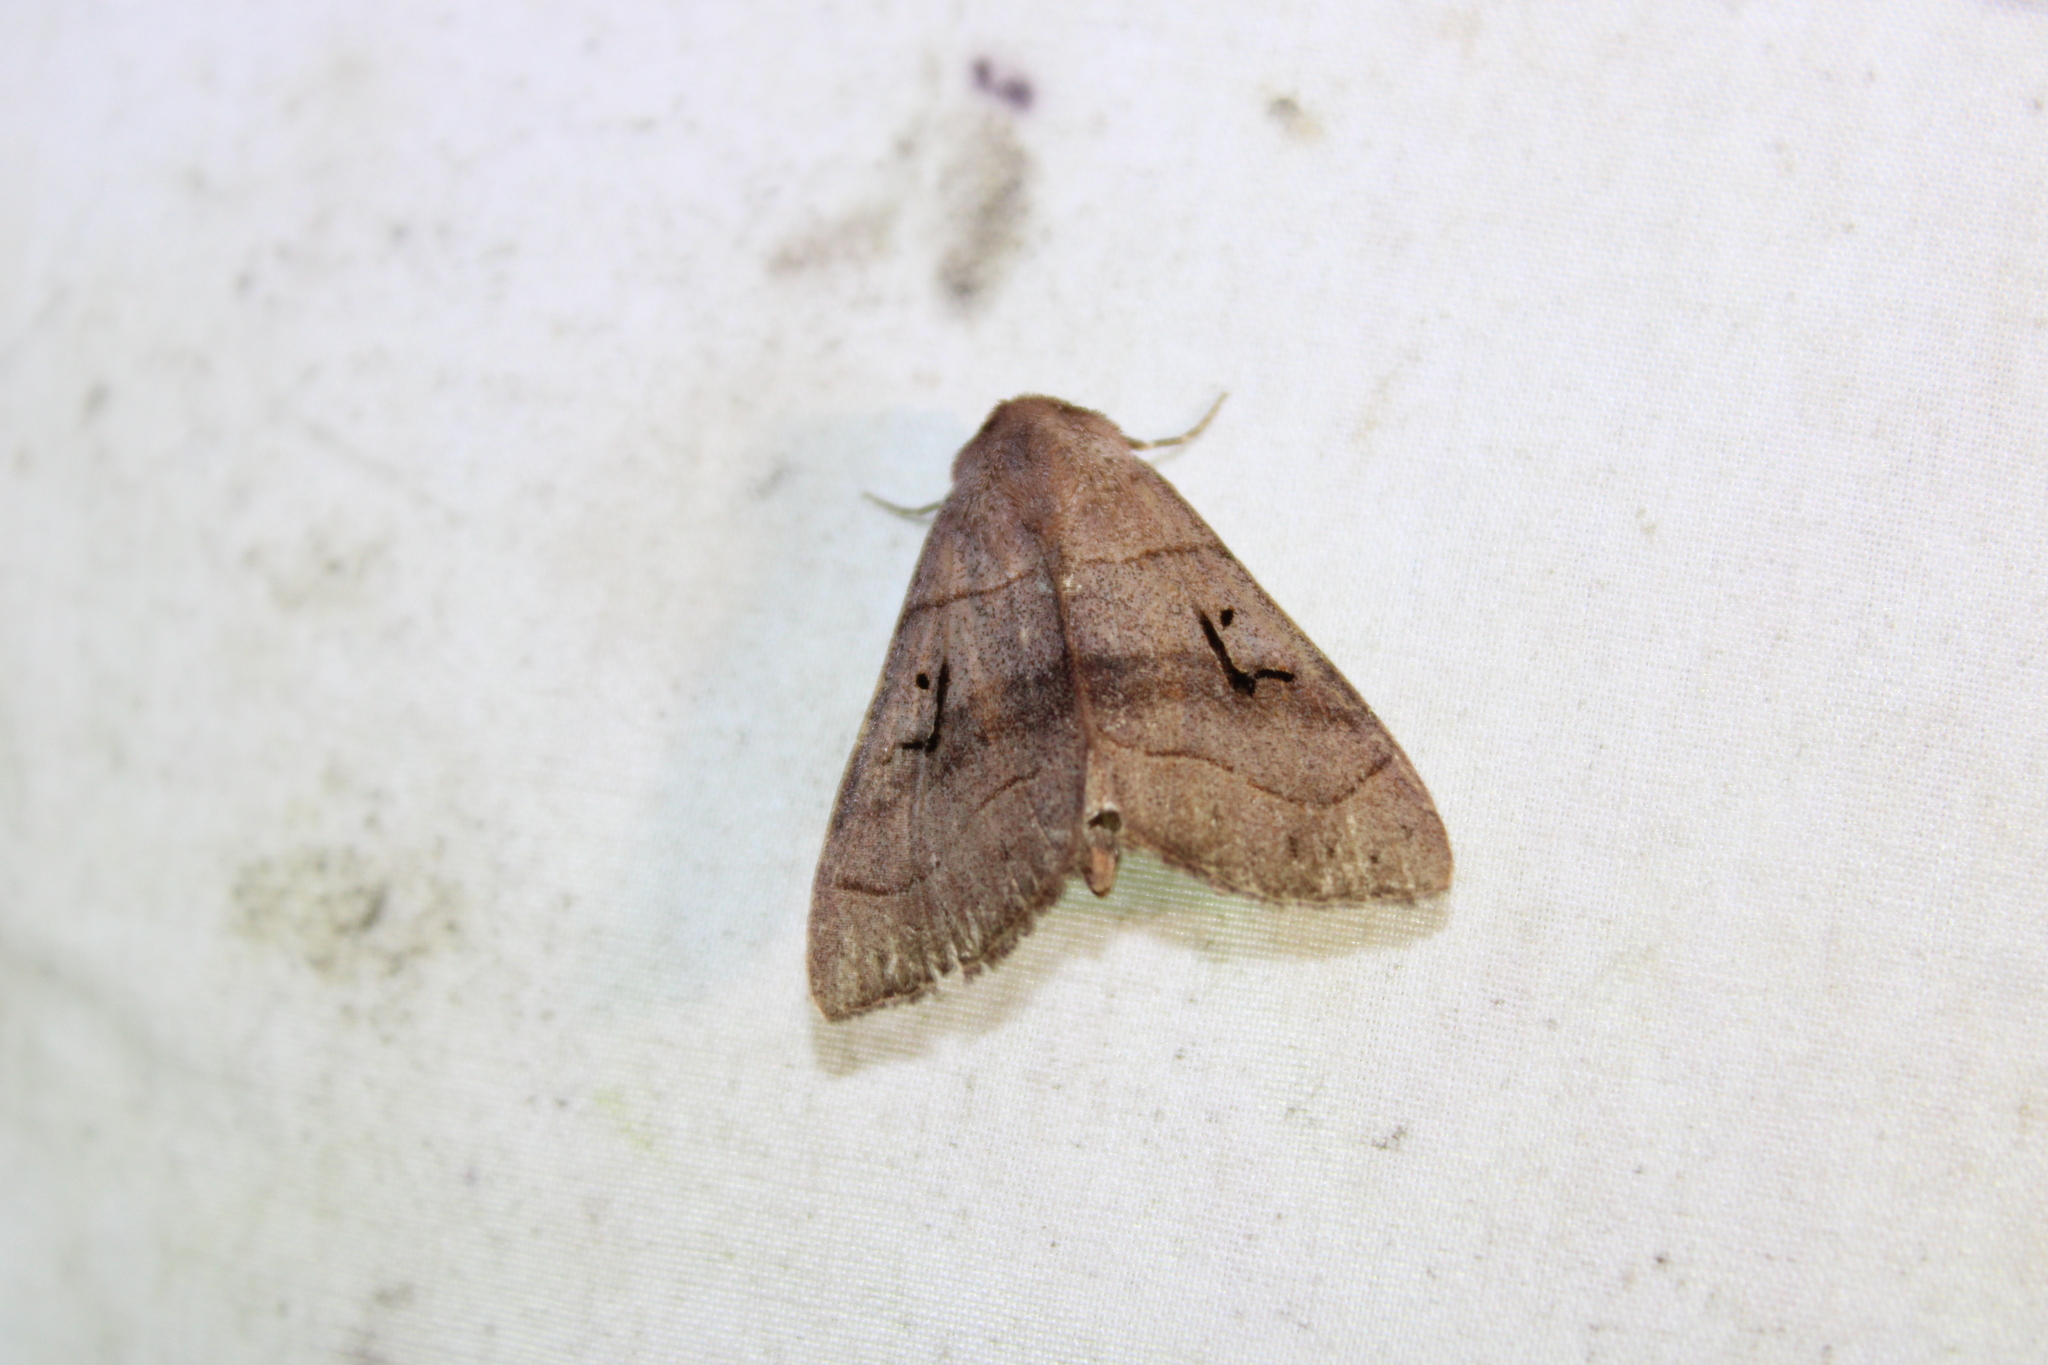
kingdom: Animalia
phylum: Arthropoda
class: Insecta
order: Lepidoptera
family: Erebidae
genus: Panopoda
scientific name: Panopoda carneicosta
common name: Brown panopoda moth
